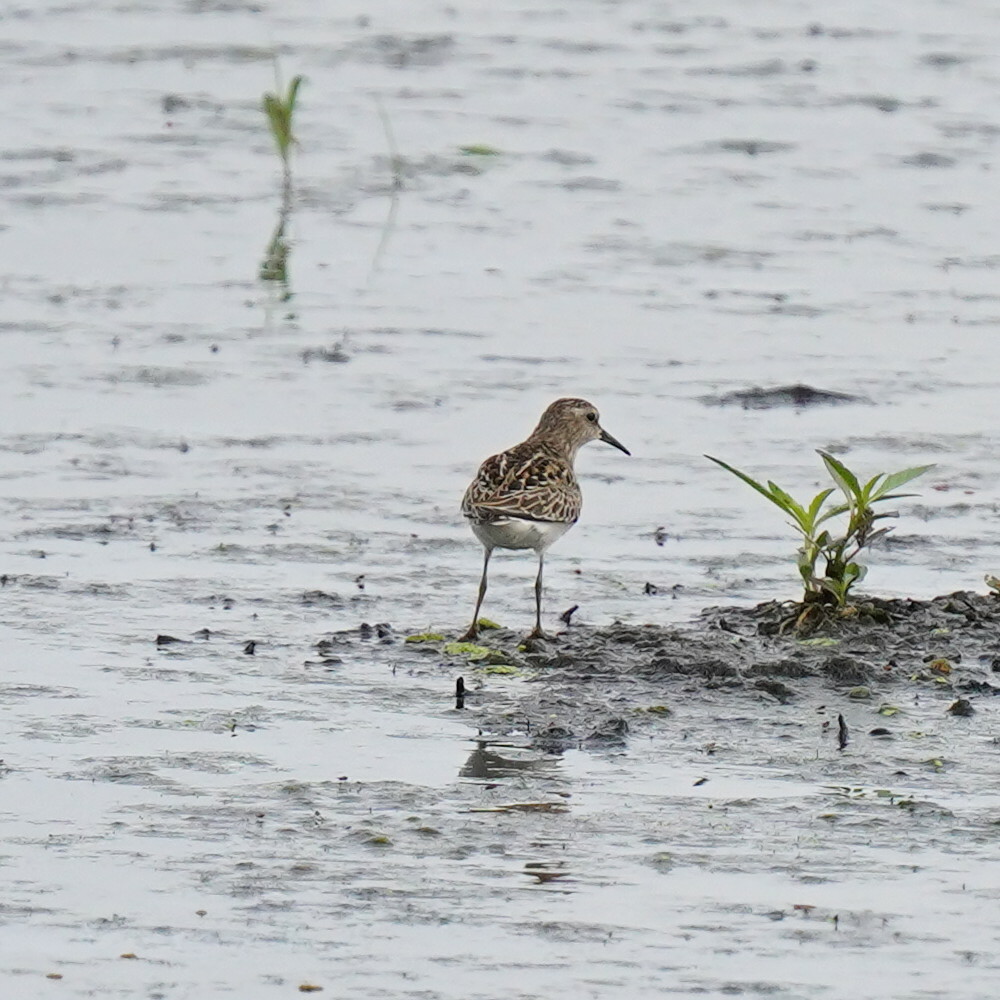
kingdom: Animalia
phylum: Chordata
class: Aves
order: Charadriiformes
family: Scolopacidae
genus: Calidris
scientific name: Calidris minutilla
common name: Least sandpiper
